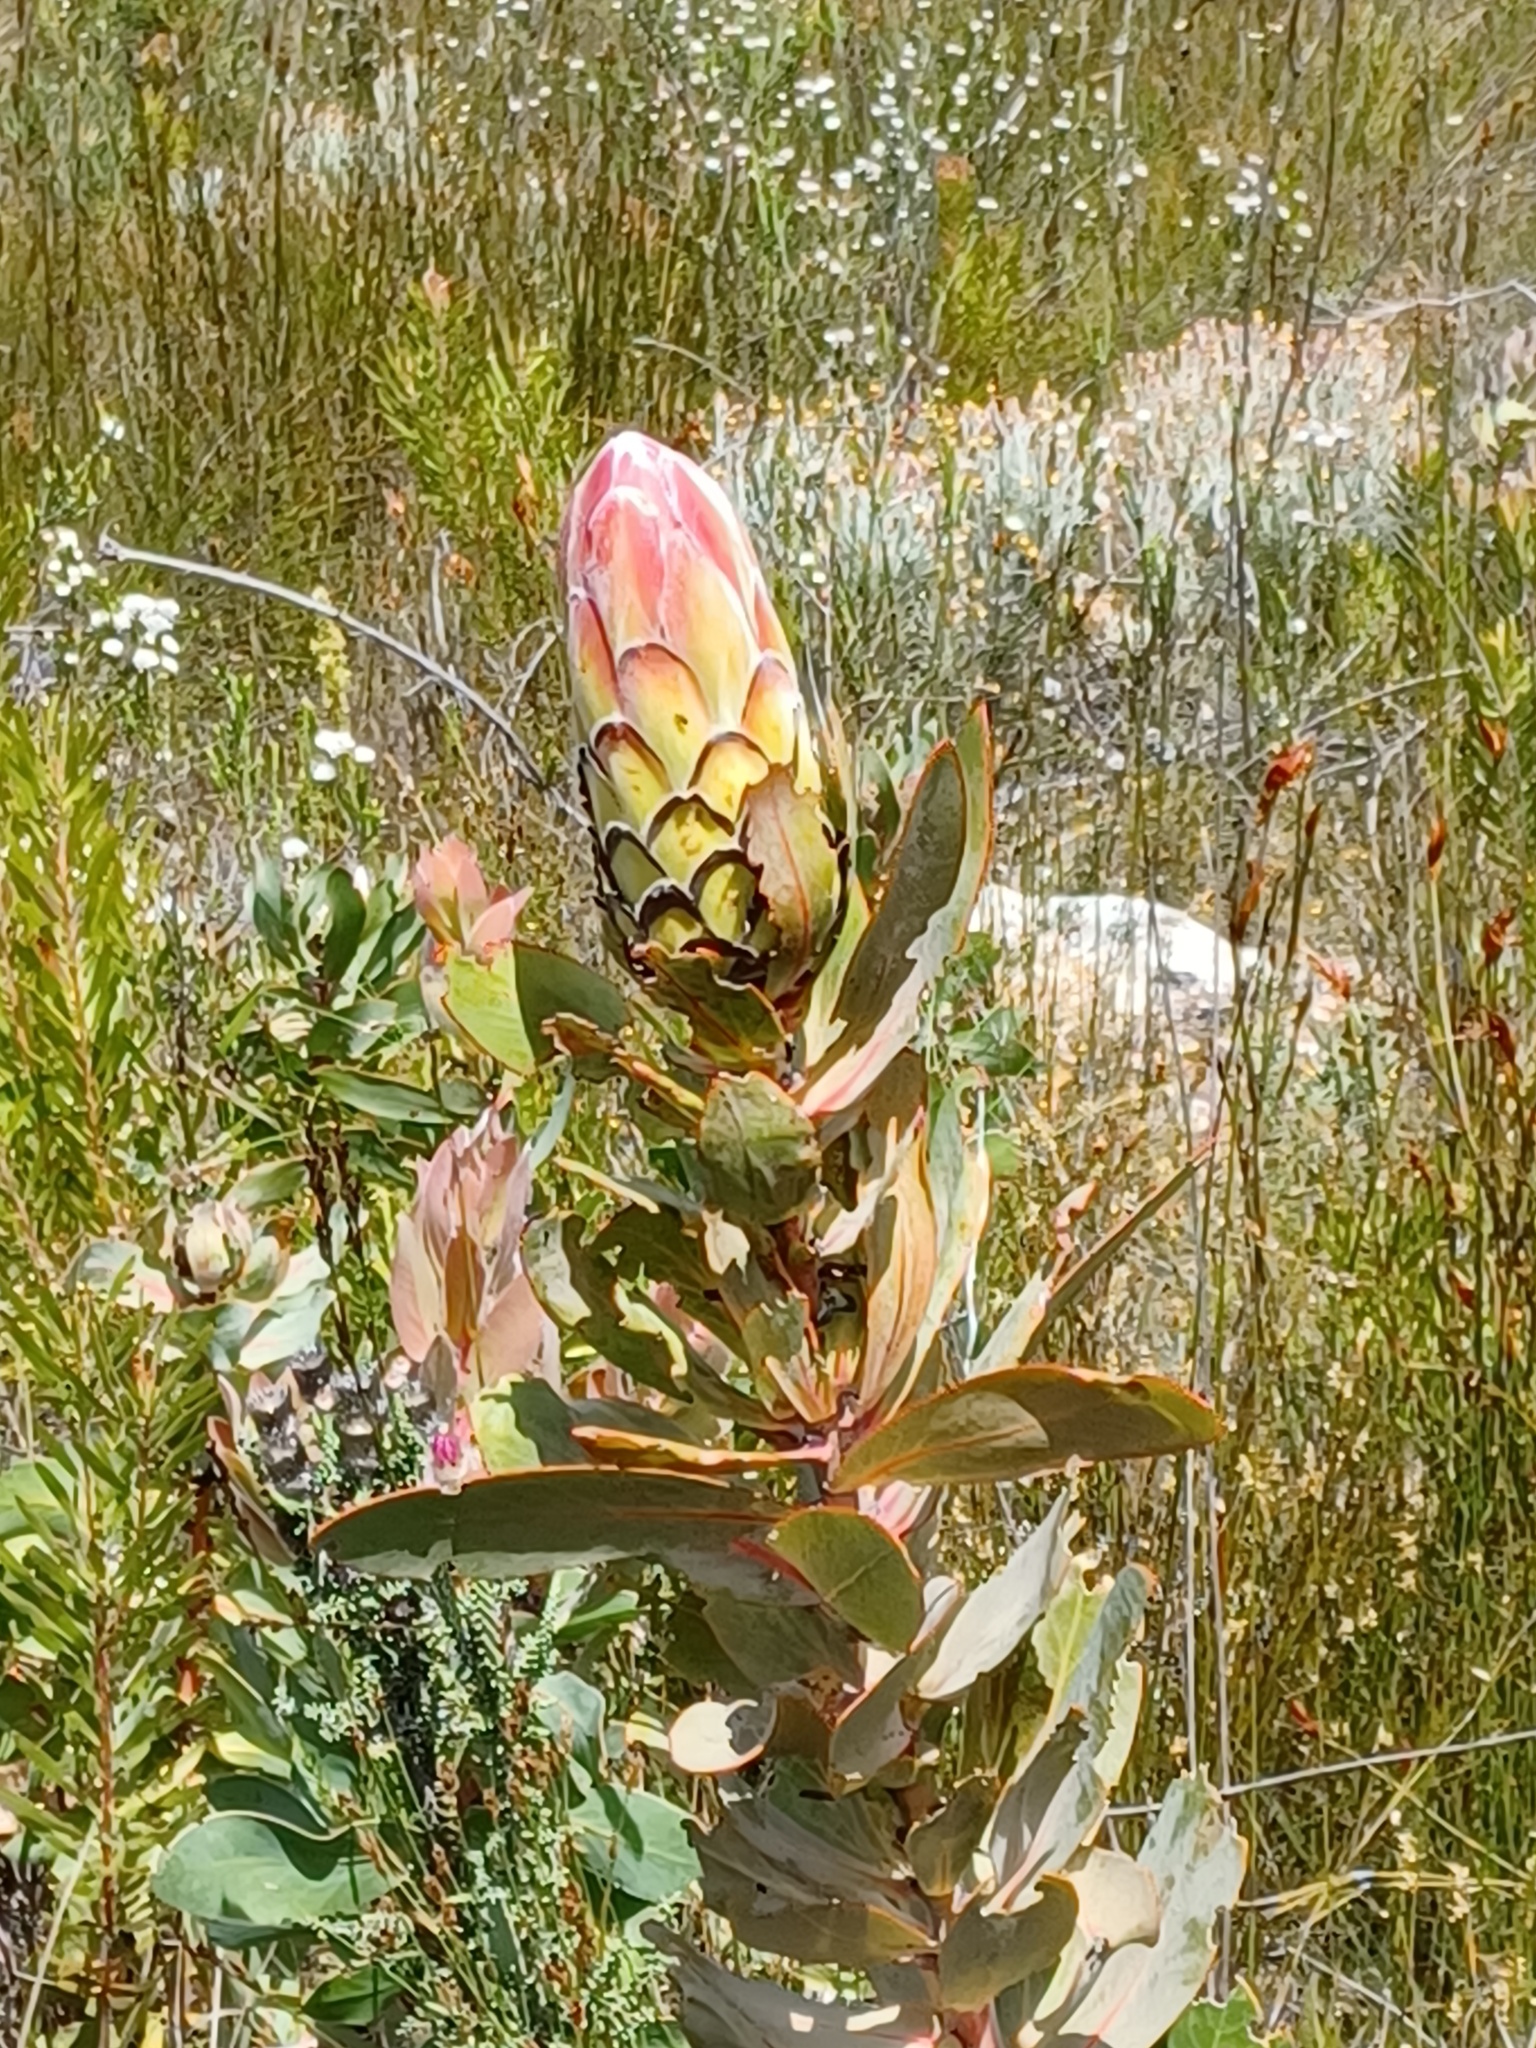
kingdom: Plantae
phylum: Tracheophyta
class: Magnoliopsida
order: Proteales
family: Proteaceae
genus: Protea
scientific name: Protea eximia
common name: Broad-leaved sugarbush
